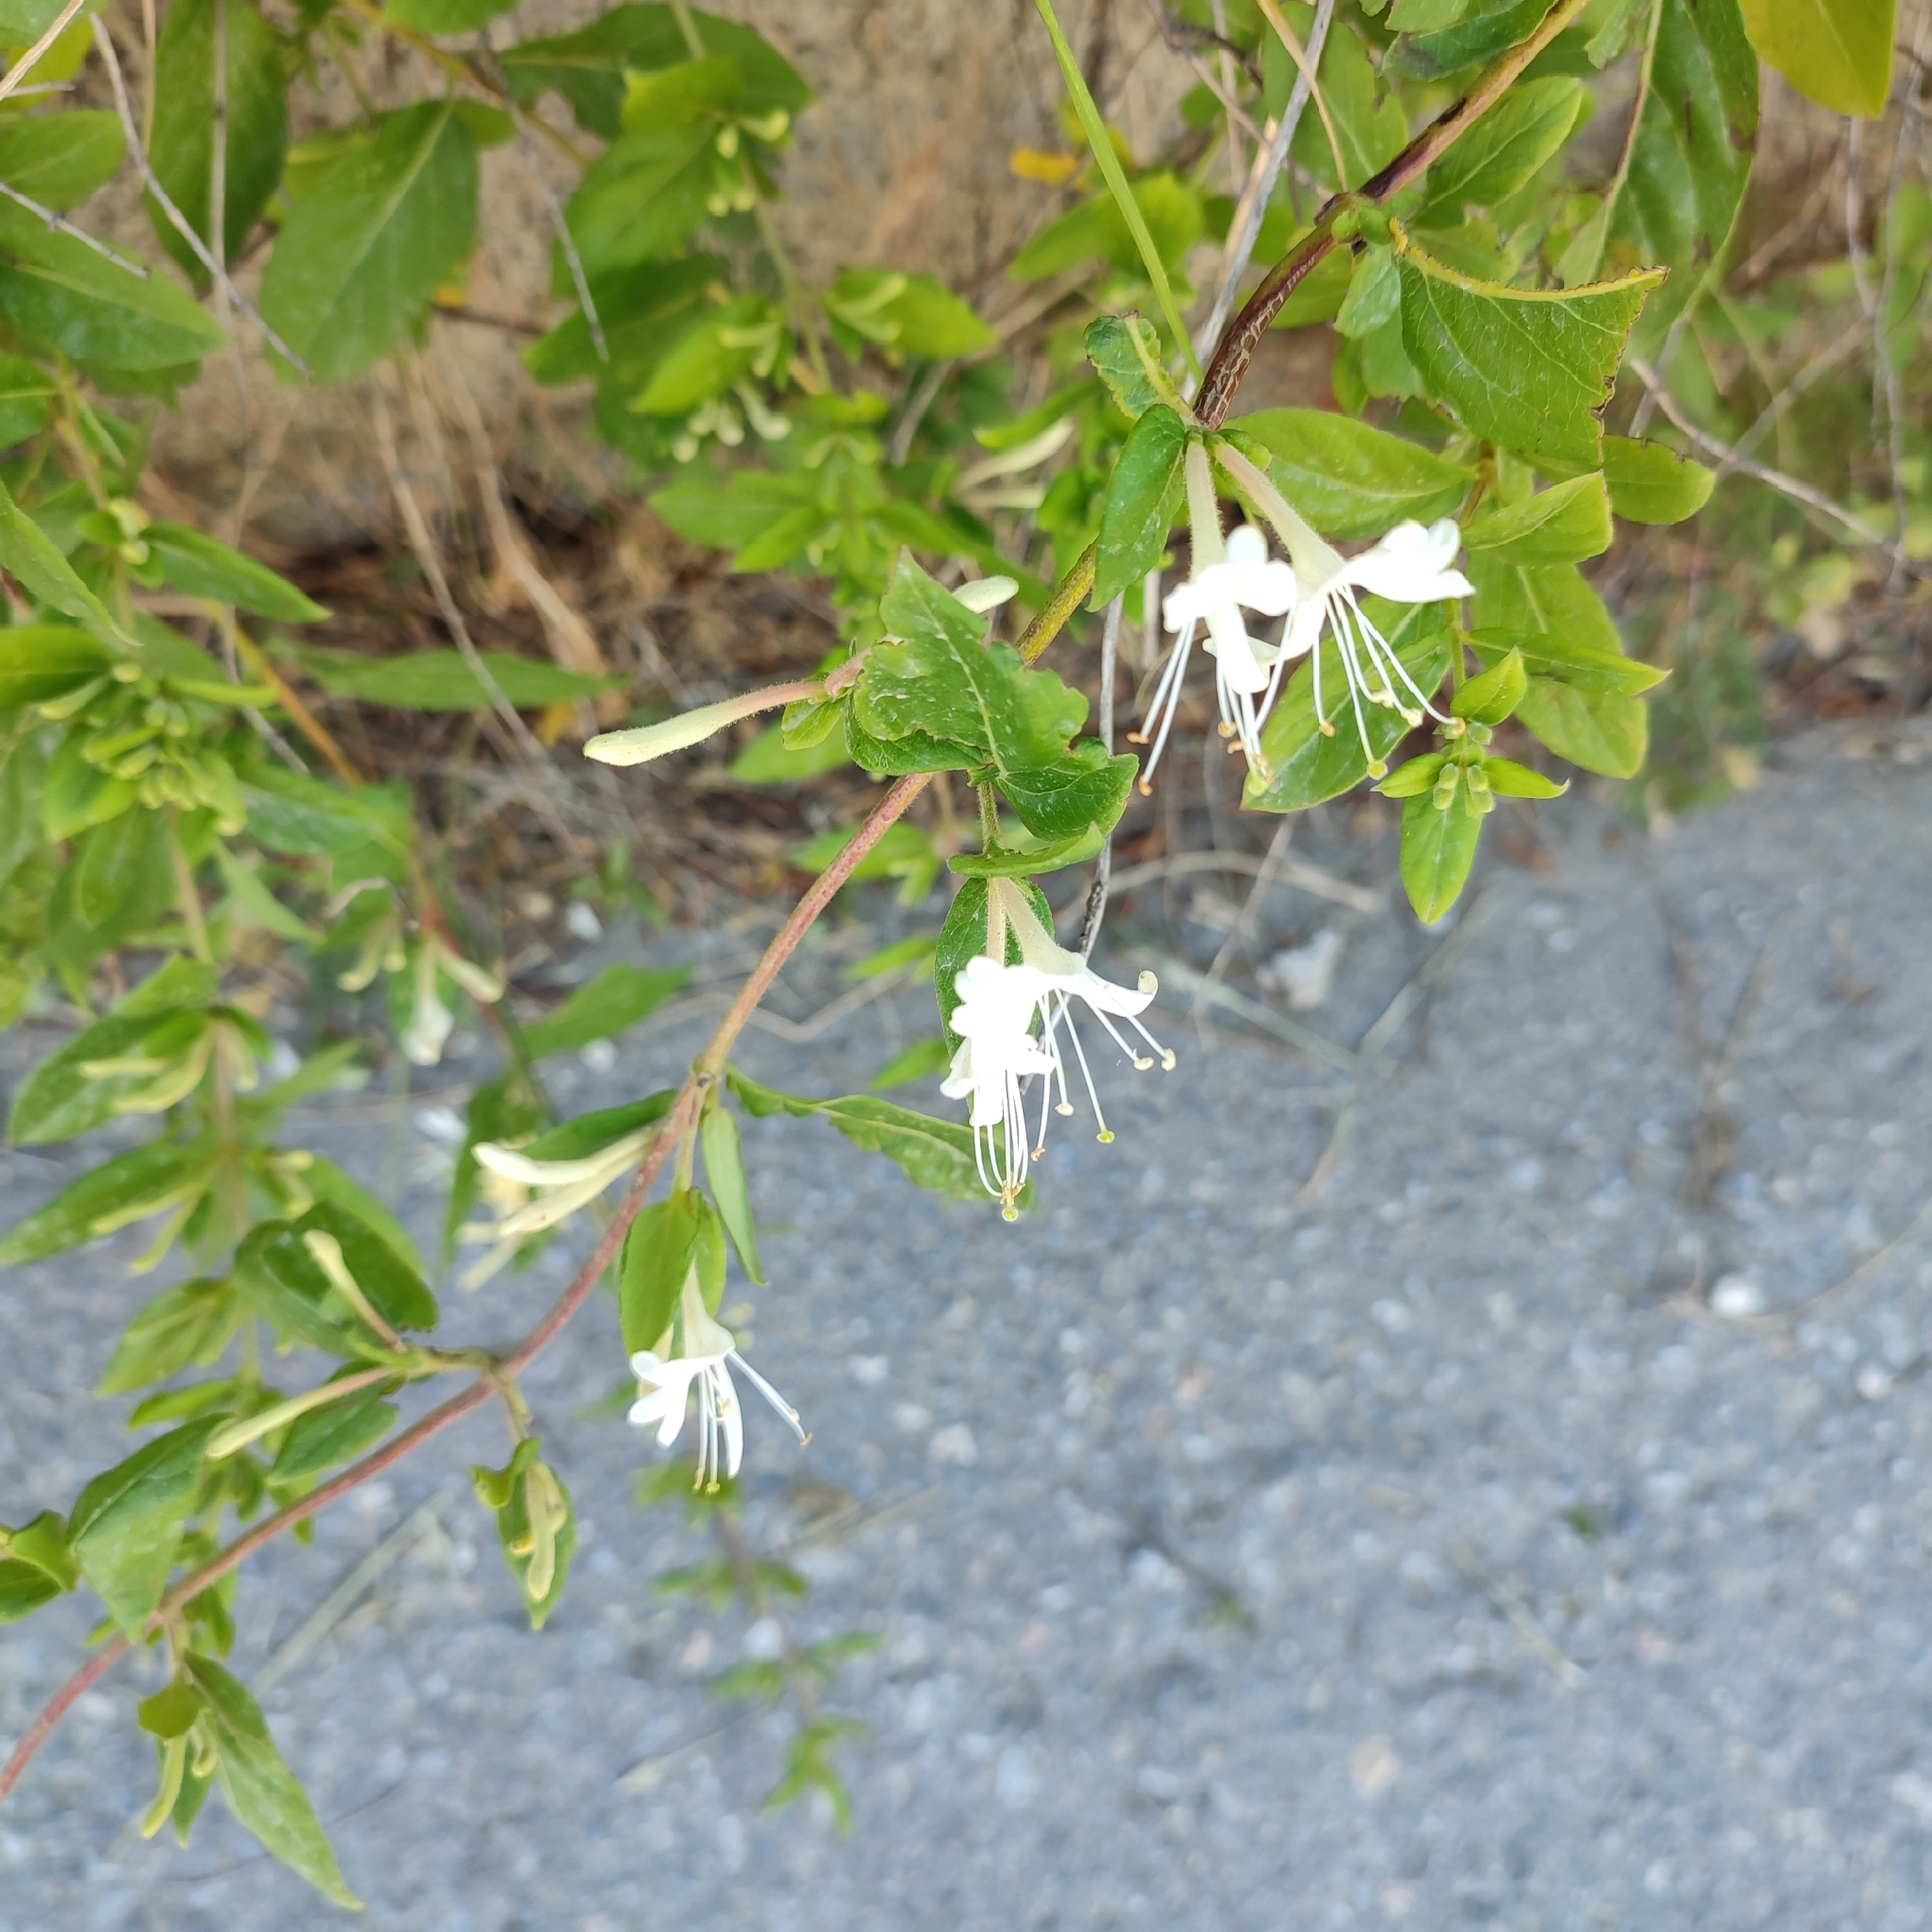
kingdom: Plantae
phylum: Tracheophyta
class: Magnoliopsida
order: Dipsacales
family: Caprifoliaceae
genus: Lonicera
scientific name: Lonicera japonica
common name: Japanese honeysuckle
